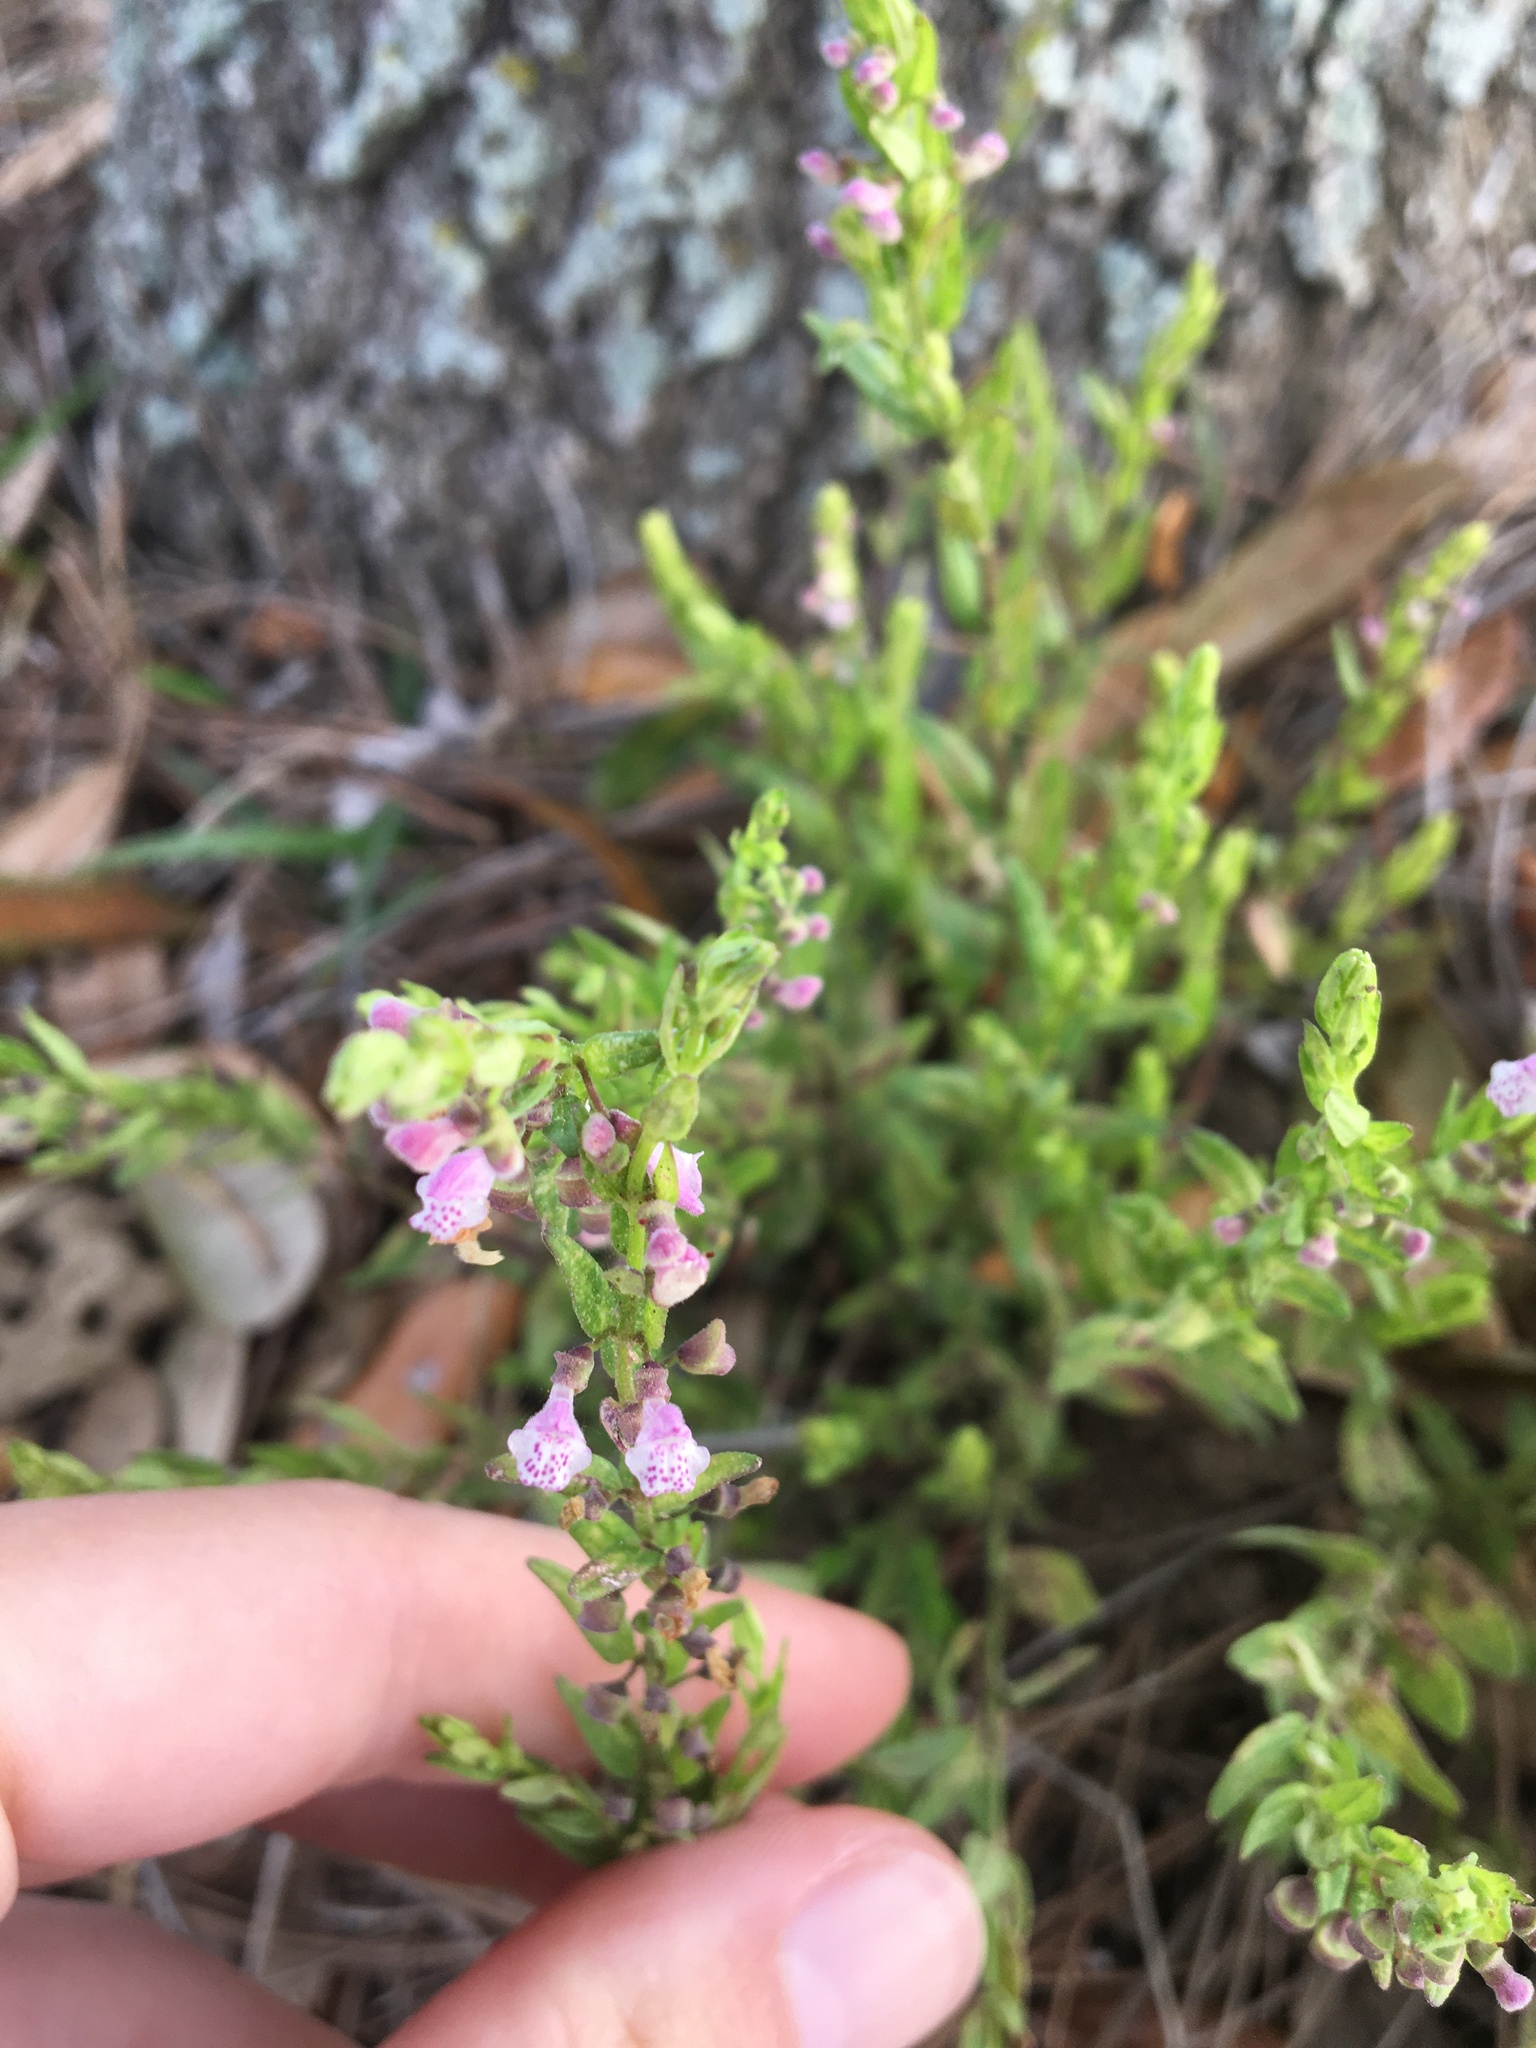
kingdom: Plantae
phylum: Tracheophyta
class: Magnoliopsida
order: Lamiales
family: Lamiaceae
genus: Scutellaria
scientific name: Scutellaria racemosa
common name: South american skullcap
